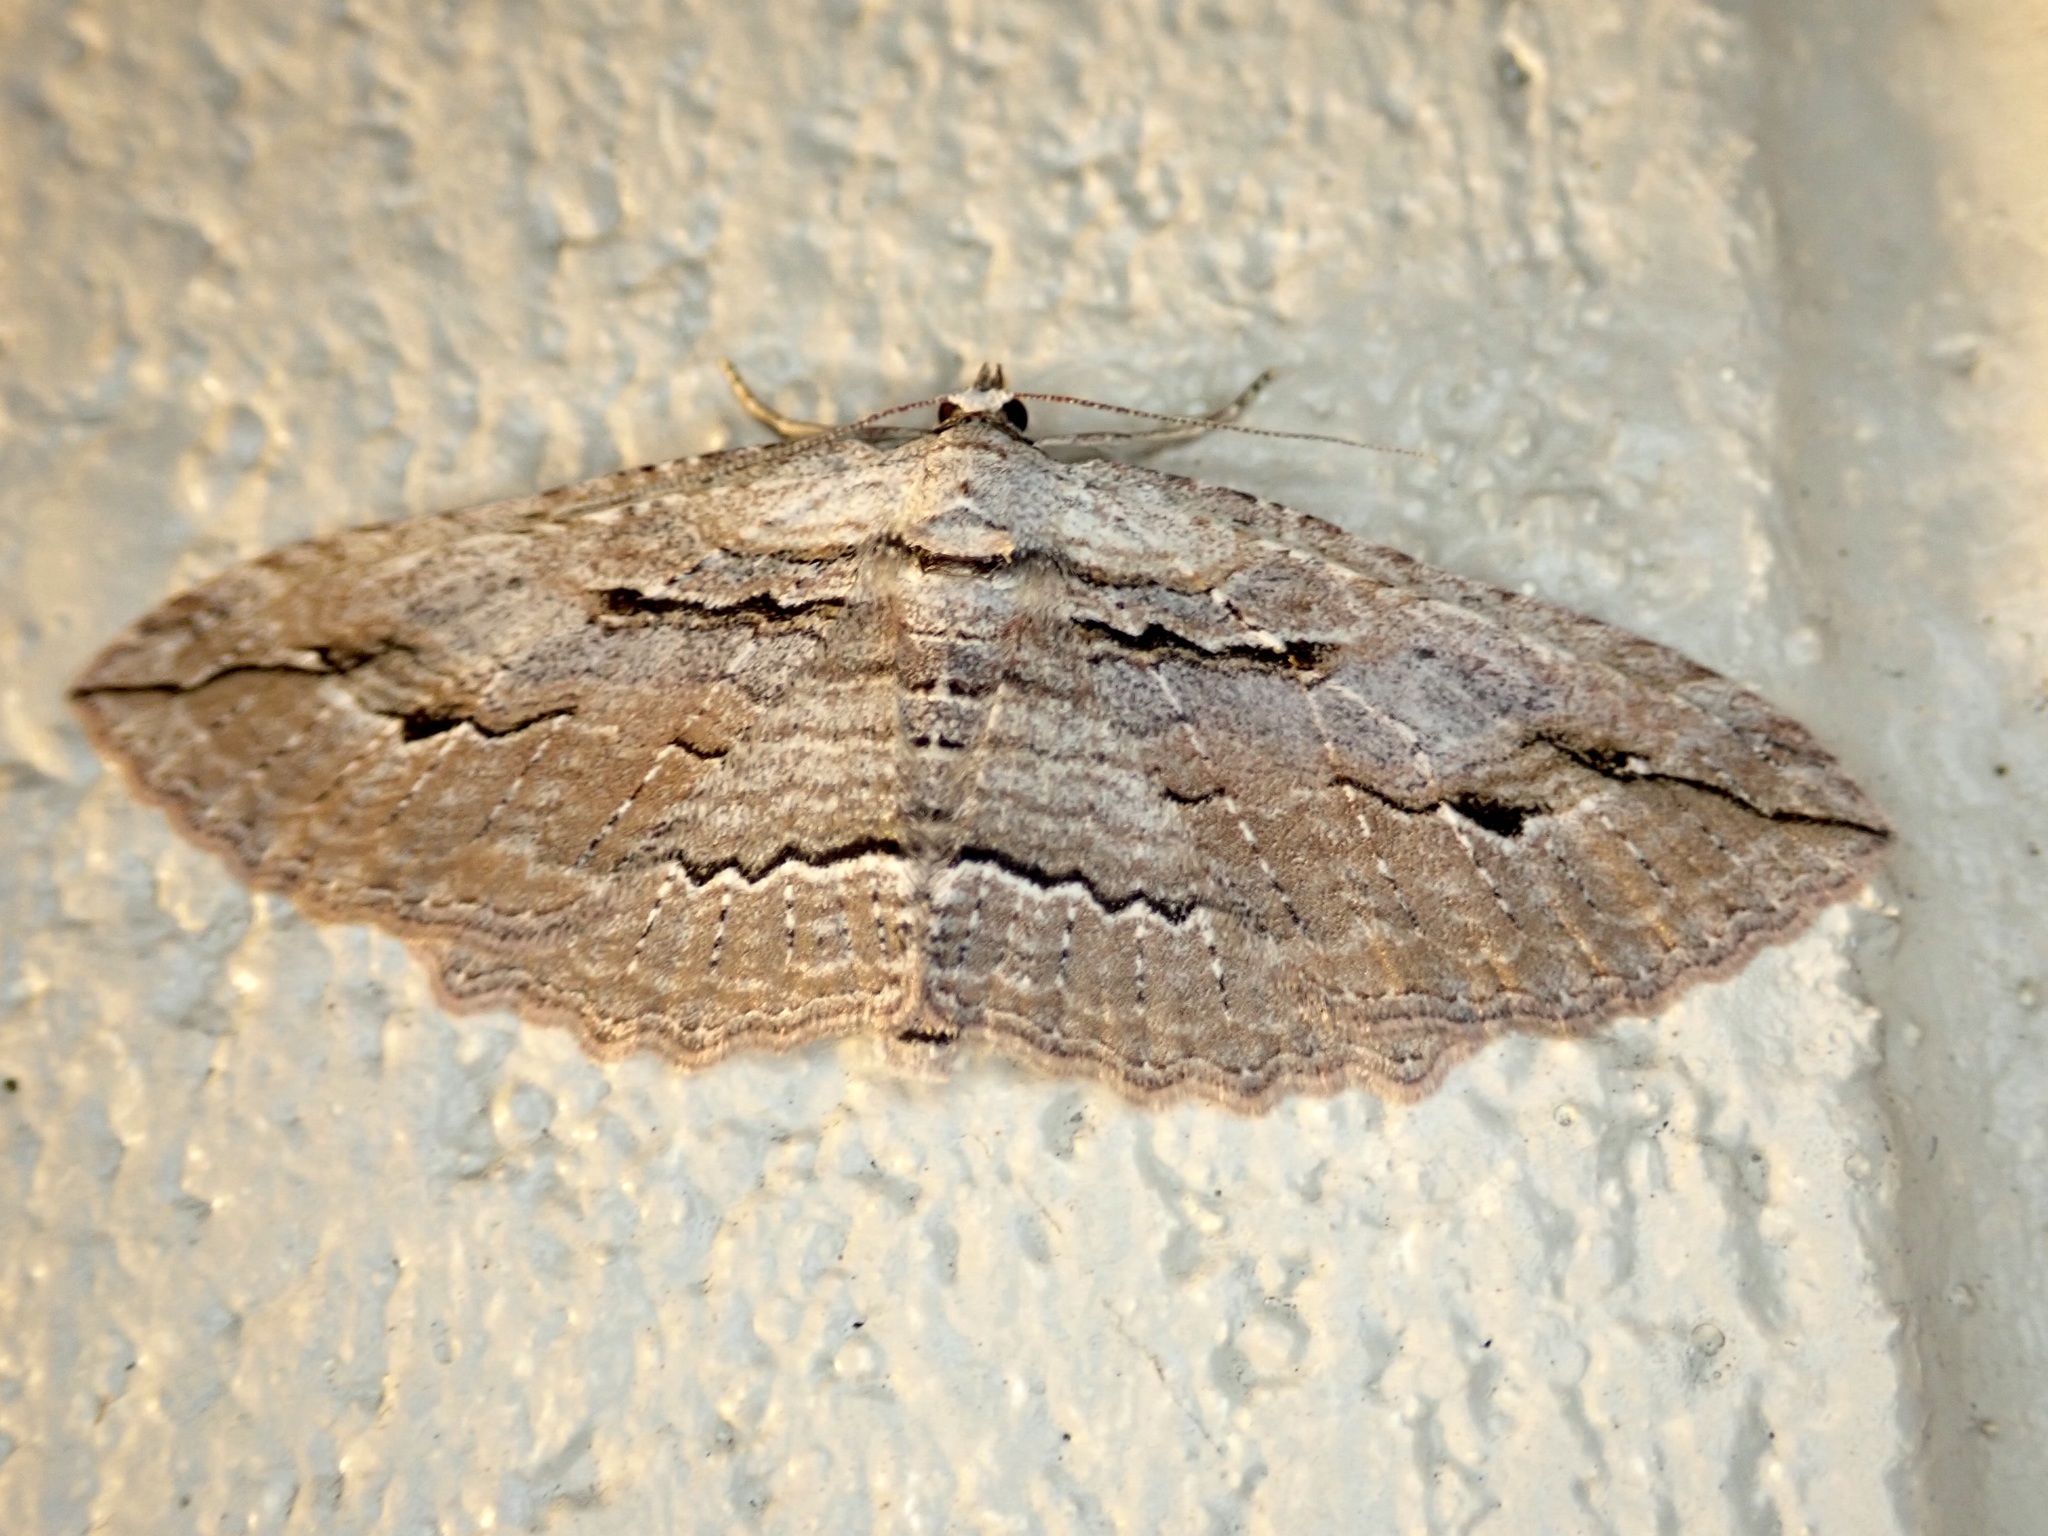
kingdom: Animalia
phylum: Arthropoda
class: Insecta
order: Lepidoptera
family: Geometridae
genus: Austrocidaria
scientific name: Austrocidaria gobiata
